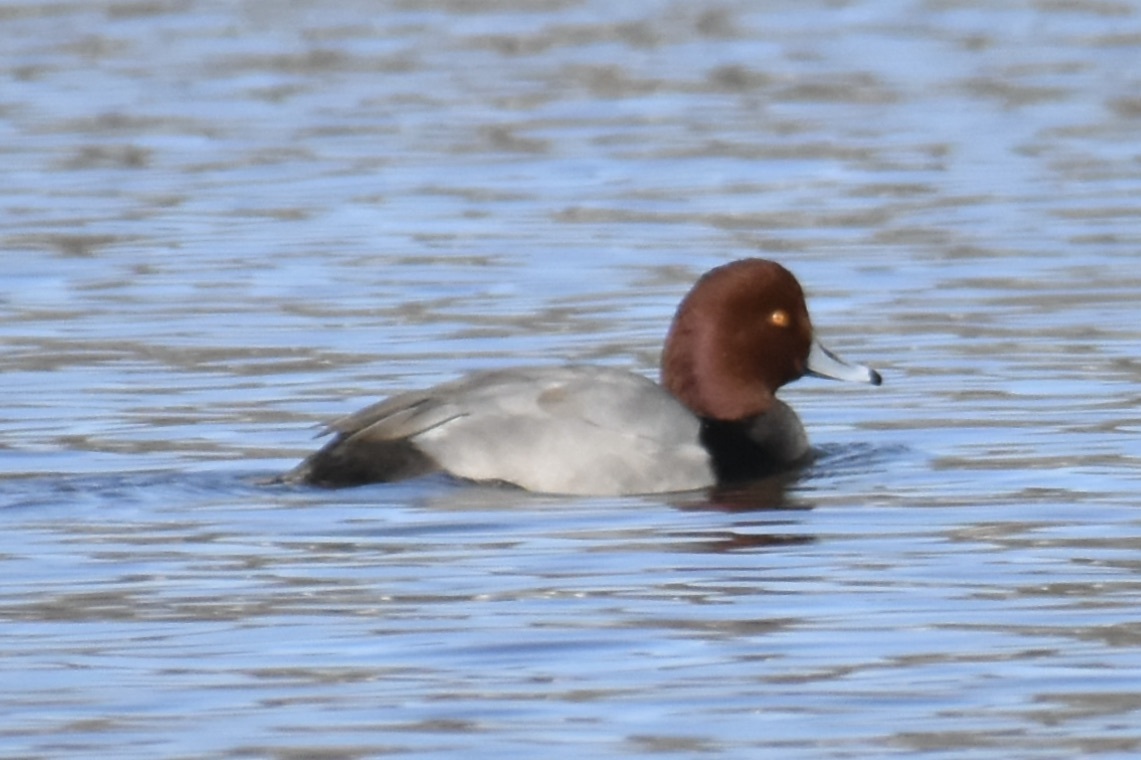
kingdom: Animalia
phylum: Chordata
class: Aves
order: Anseriformes
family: Anatidae
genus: Aythya
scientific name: Aythya americana
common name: Redhead
